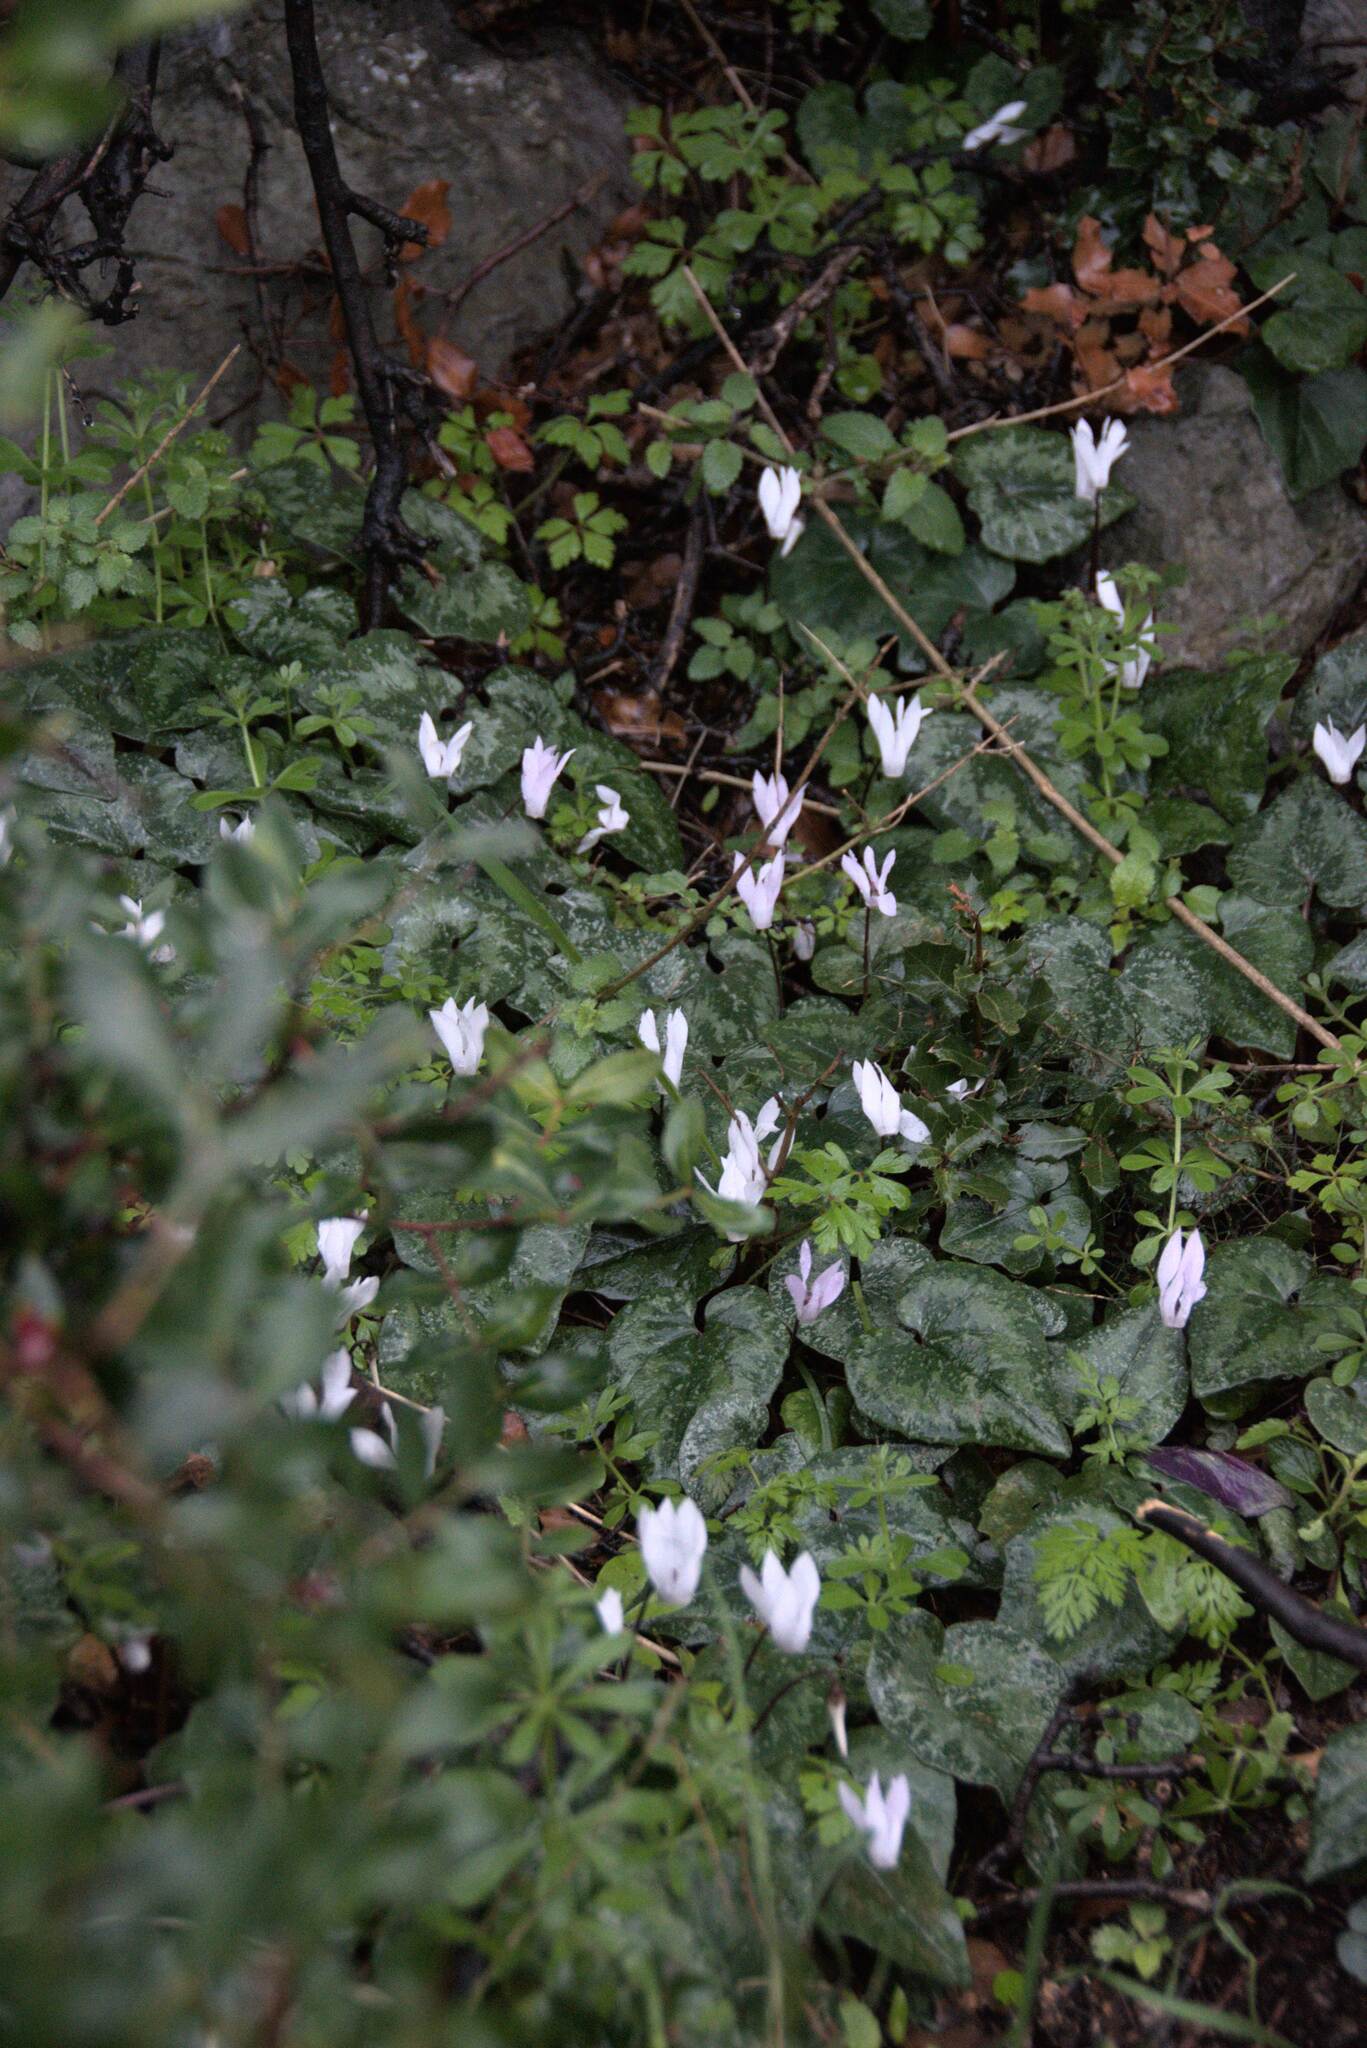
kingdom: Plantae
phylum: Tracheophyta
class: Magnoliopsida
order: Ericales
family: Primulaceae
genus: Cyclamen
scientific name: Cyclamen creticum
